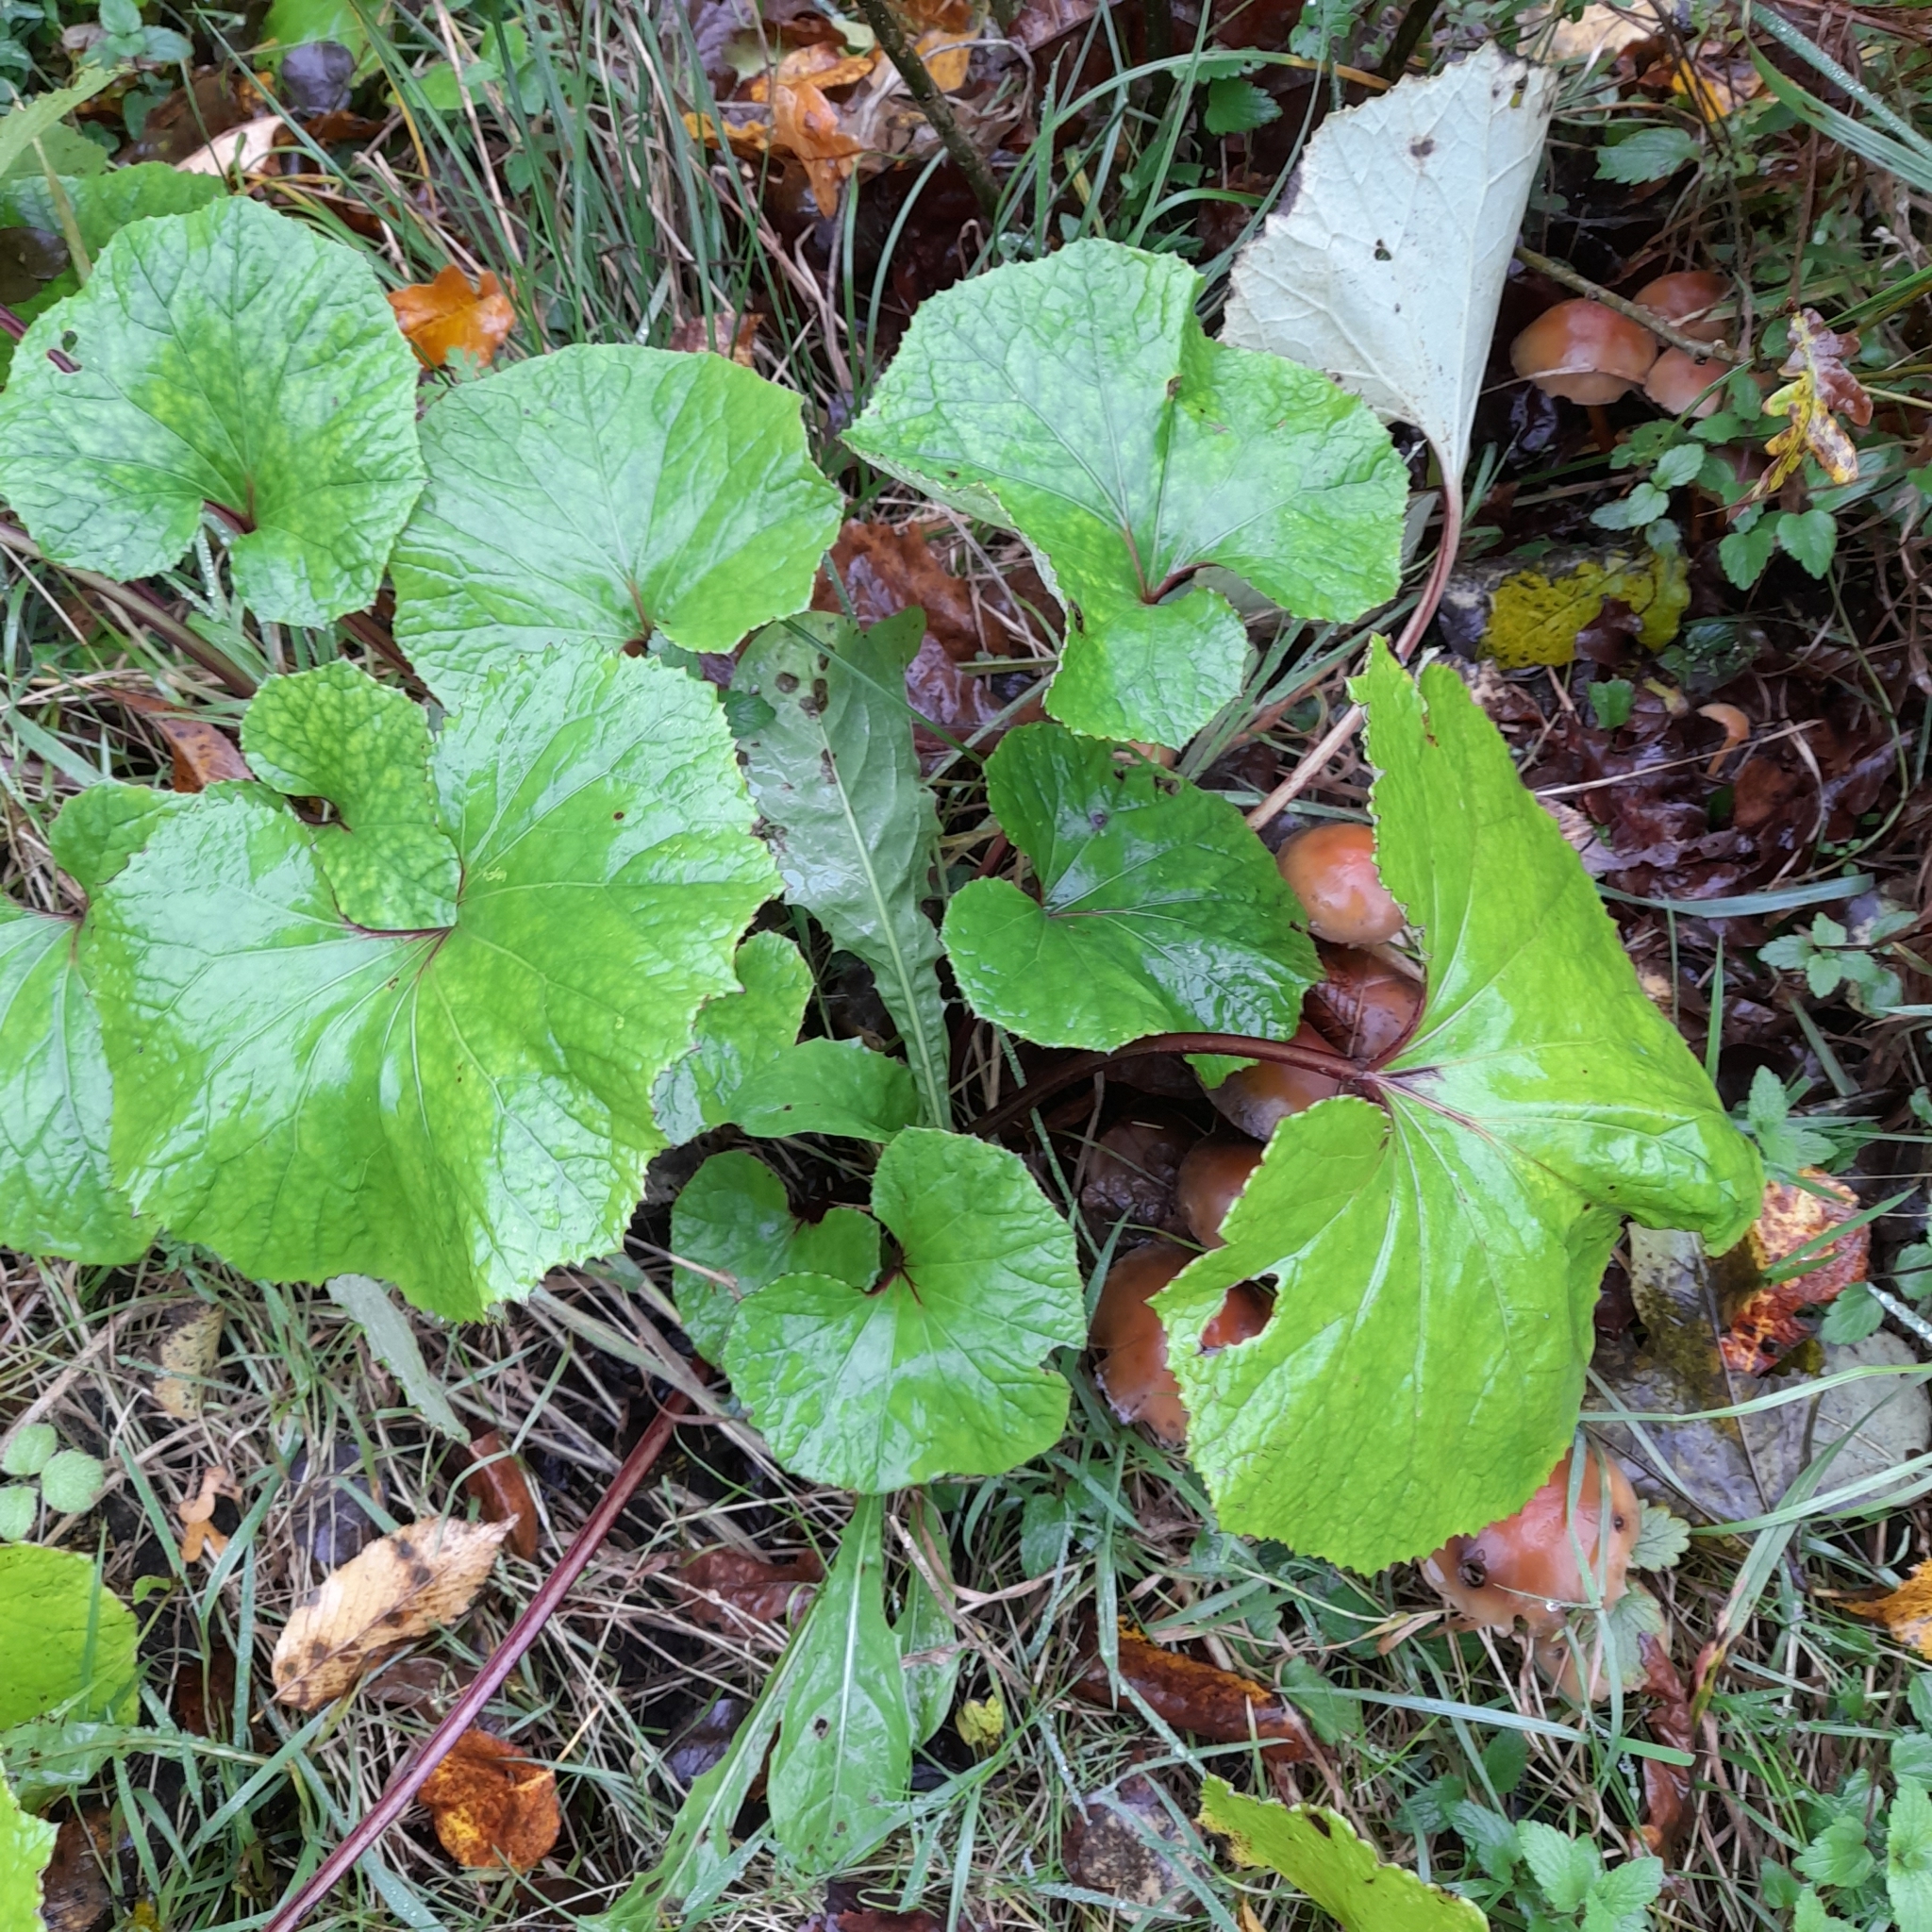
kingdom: Plantae
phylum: Tracheophyta
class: Magnoliopsida
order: Asterales
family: Asteraceae
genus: Tussilago
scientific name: Tussilago farfara
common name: Coltsfoot
